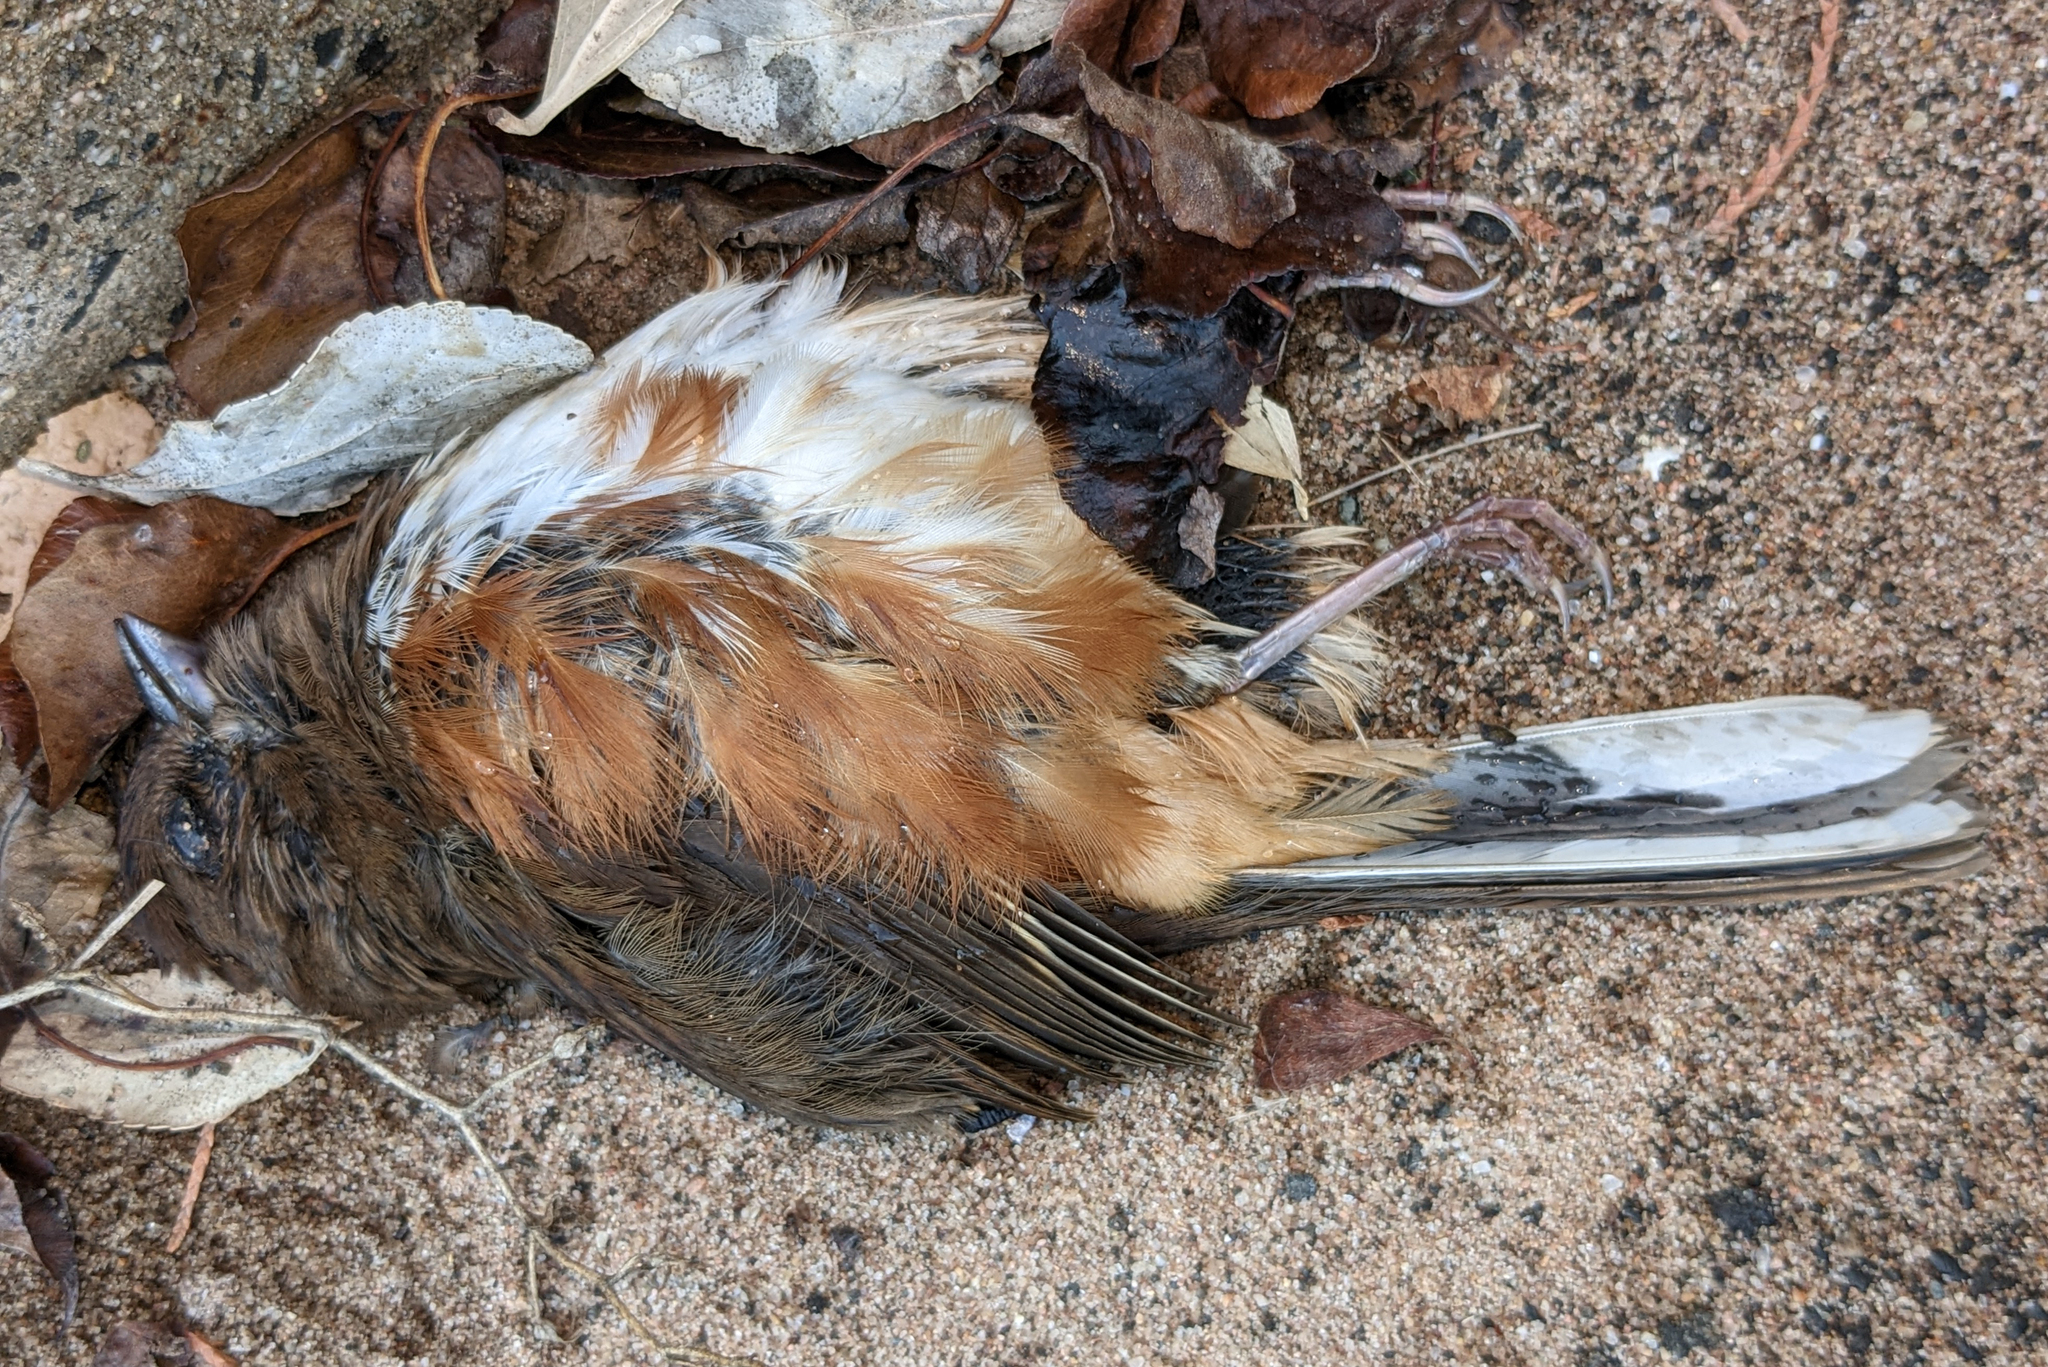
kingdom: Animalia
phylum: Chordata
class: Aves
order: Passeriformes
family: Passerellidae
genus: Pipilo
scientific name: Pipilo erythrophthalmus
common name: Eastern towhee
